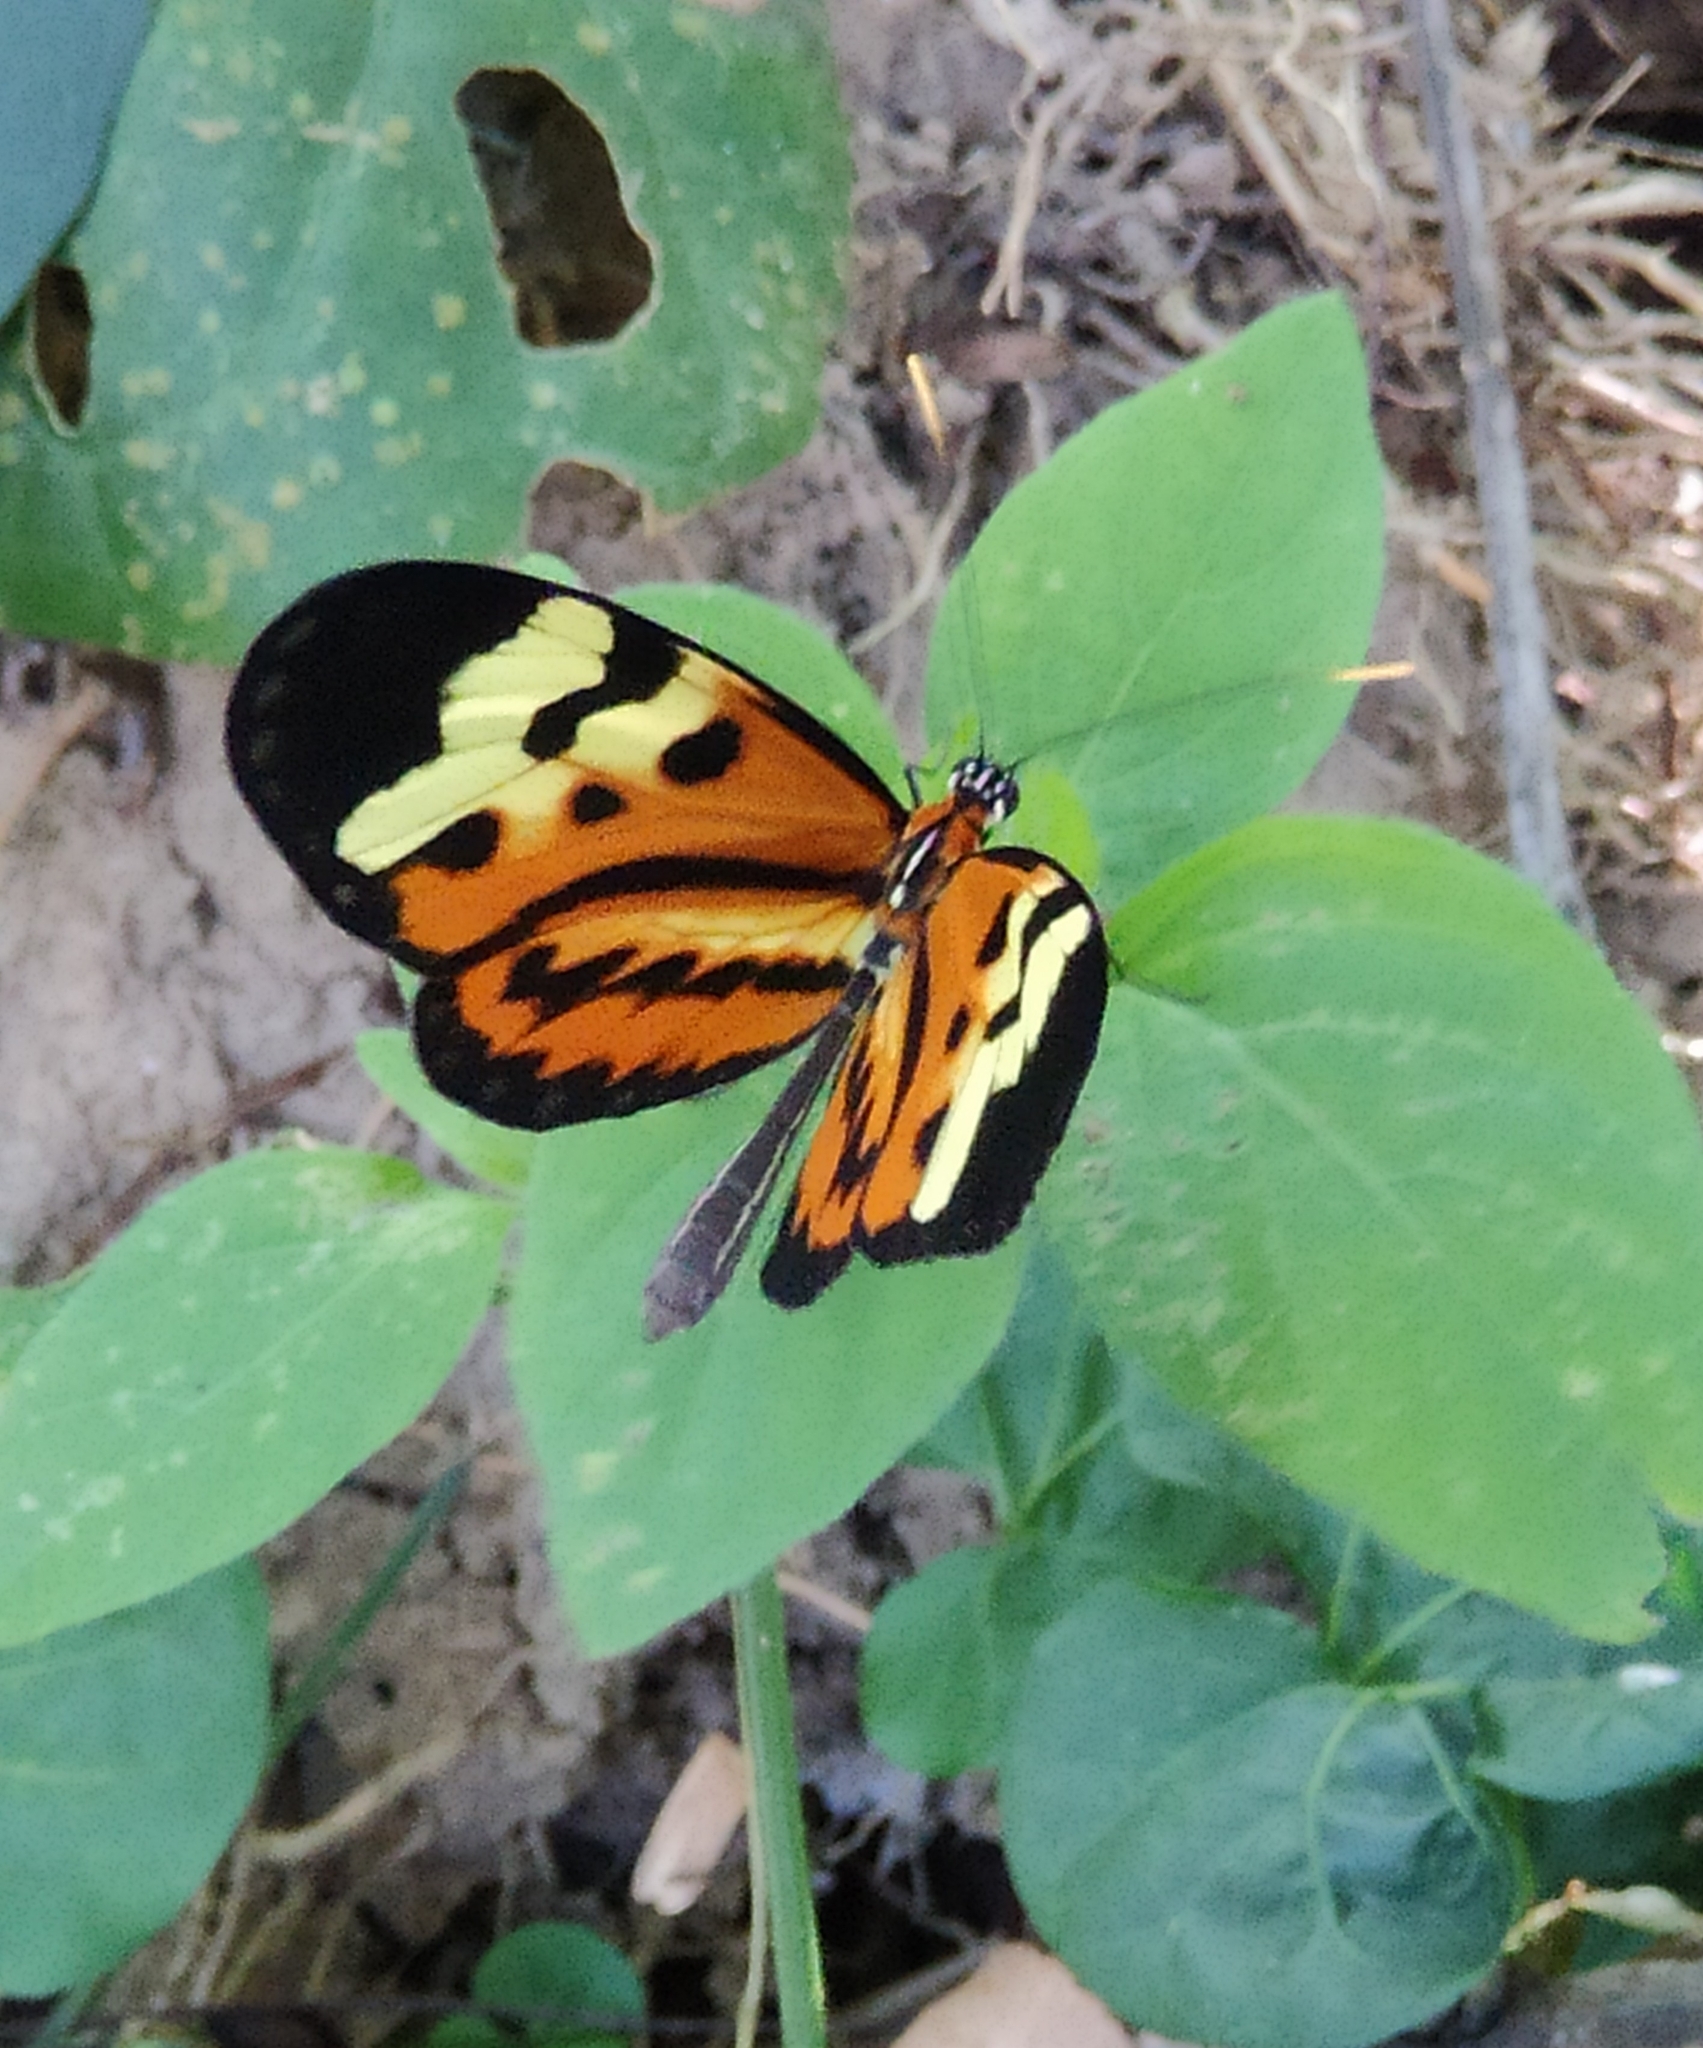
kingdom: Animalia
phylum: Arthropoda
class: Insecta
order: Lepidoptera
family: Nymphalidae
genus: Mechanitis
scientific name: Mechanitis polymnia
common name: Disturbed tigerwing
